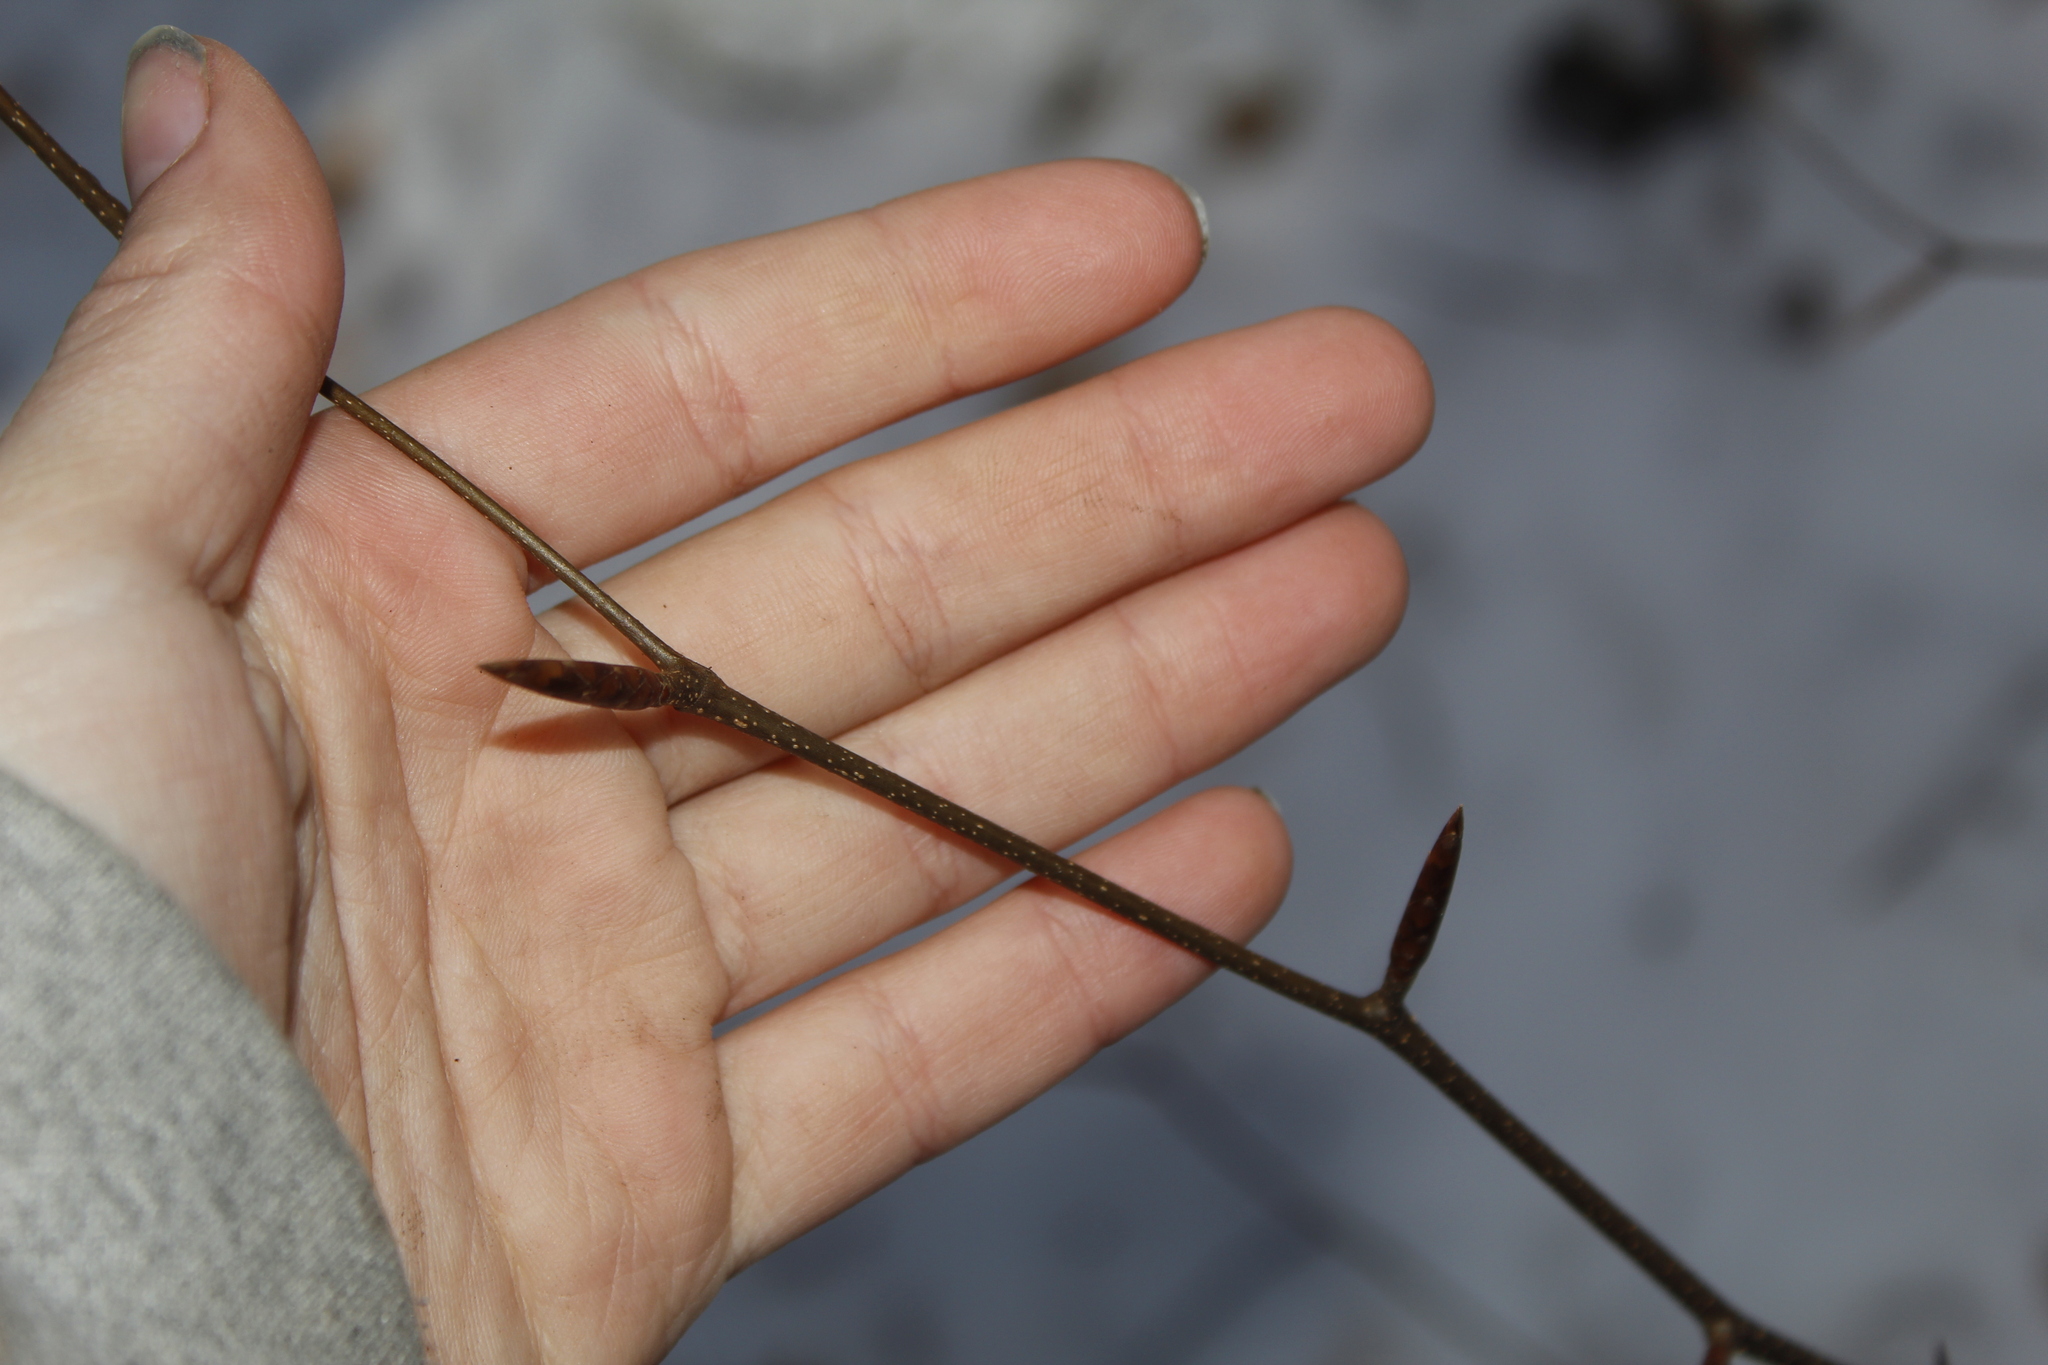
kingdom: Plantae
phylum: Tracheophyta
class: Magnoliopsida
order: Fagales
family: Fagaceae
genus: Fagus
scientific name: Fagus grandifolia
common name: American beech
